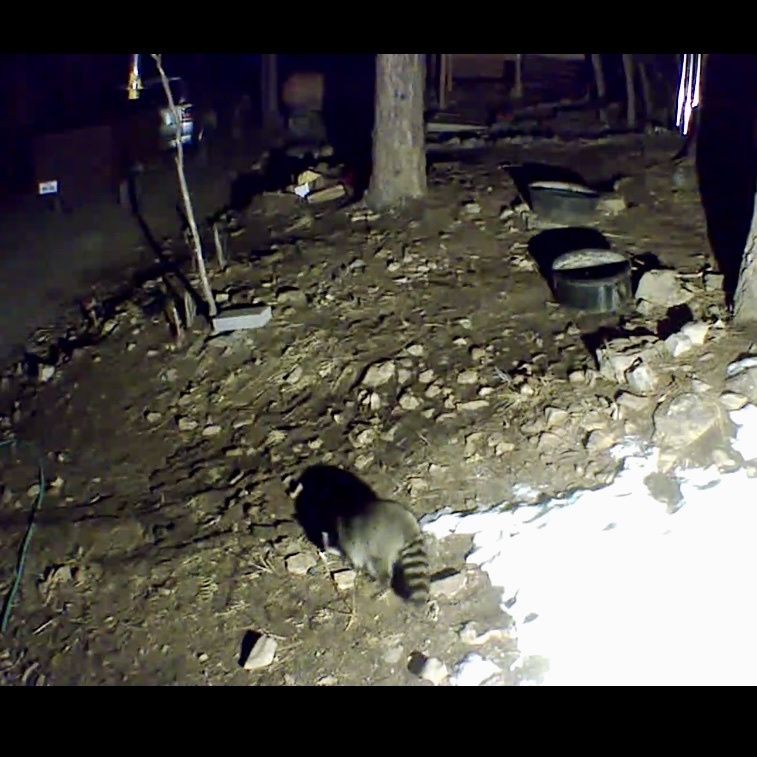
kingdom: Animalia
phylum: Chordata
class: Mammalia
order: Carnivora
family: Procyonidae
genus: Procyon
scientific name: Procyon lotor
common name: Raccoon
